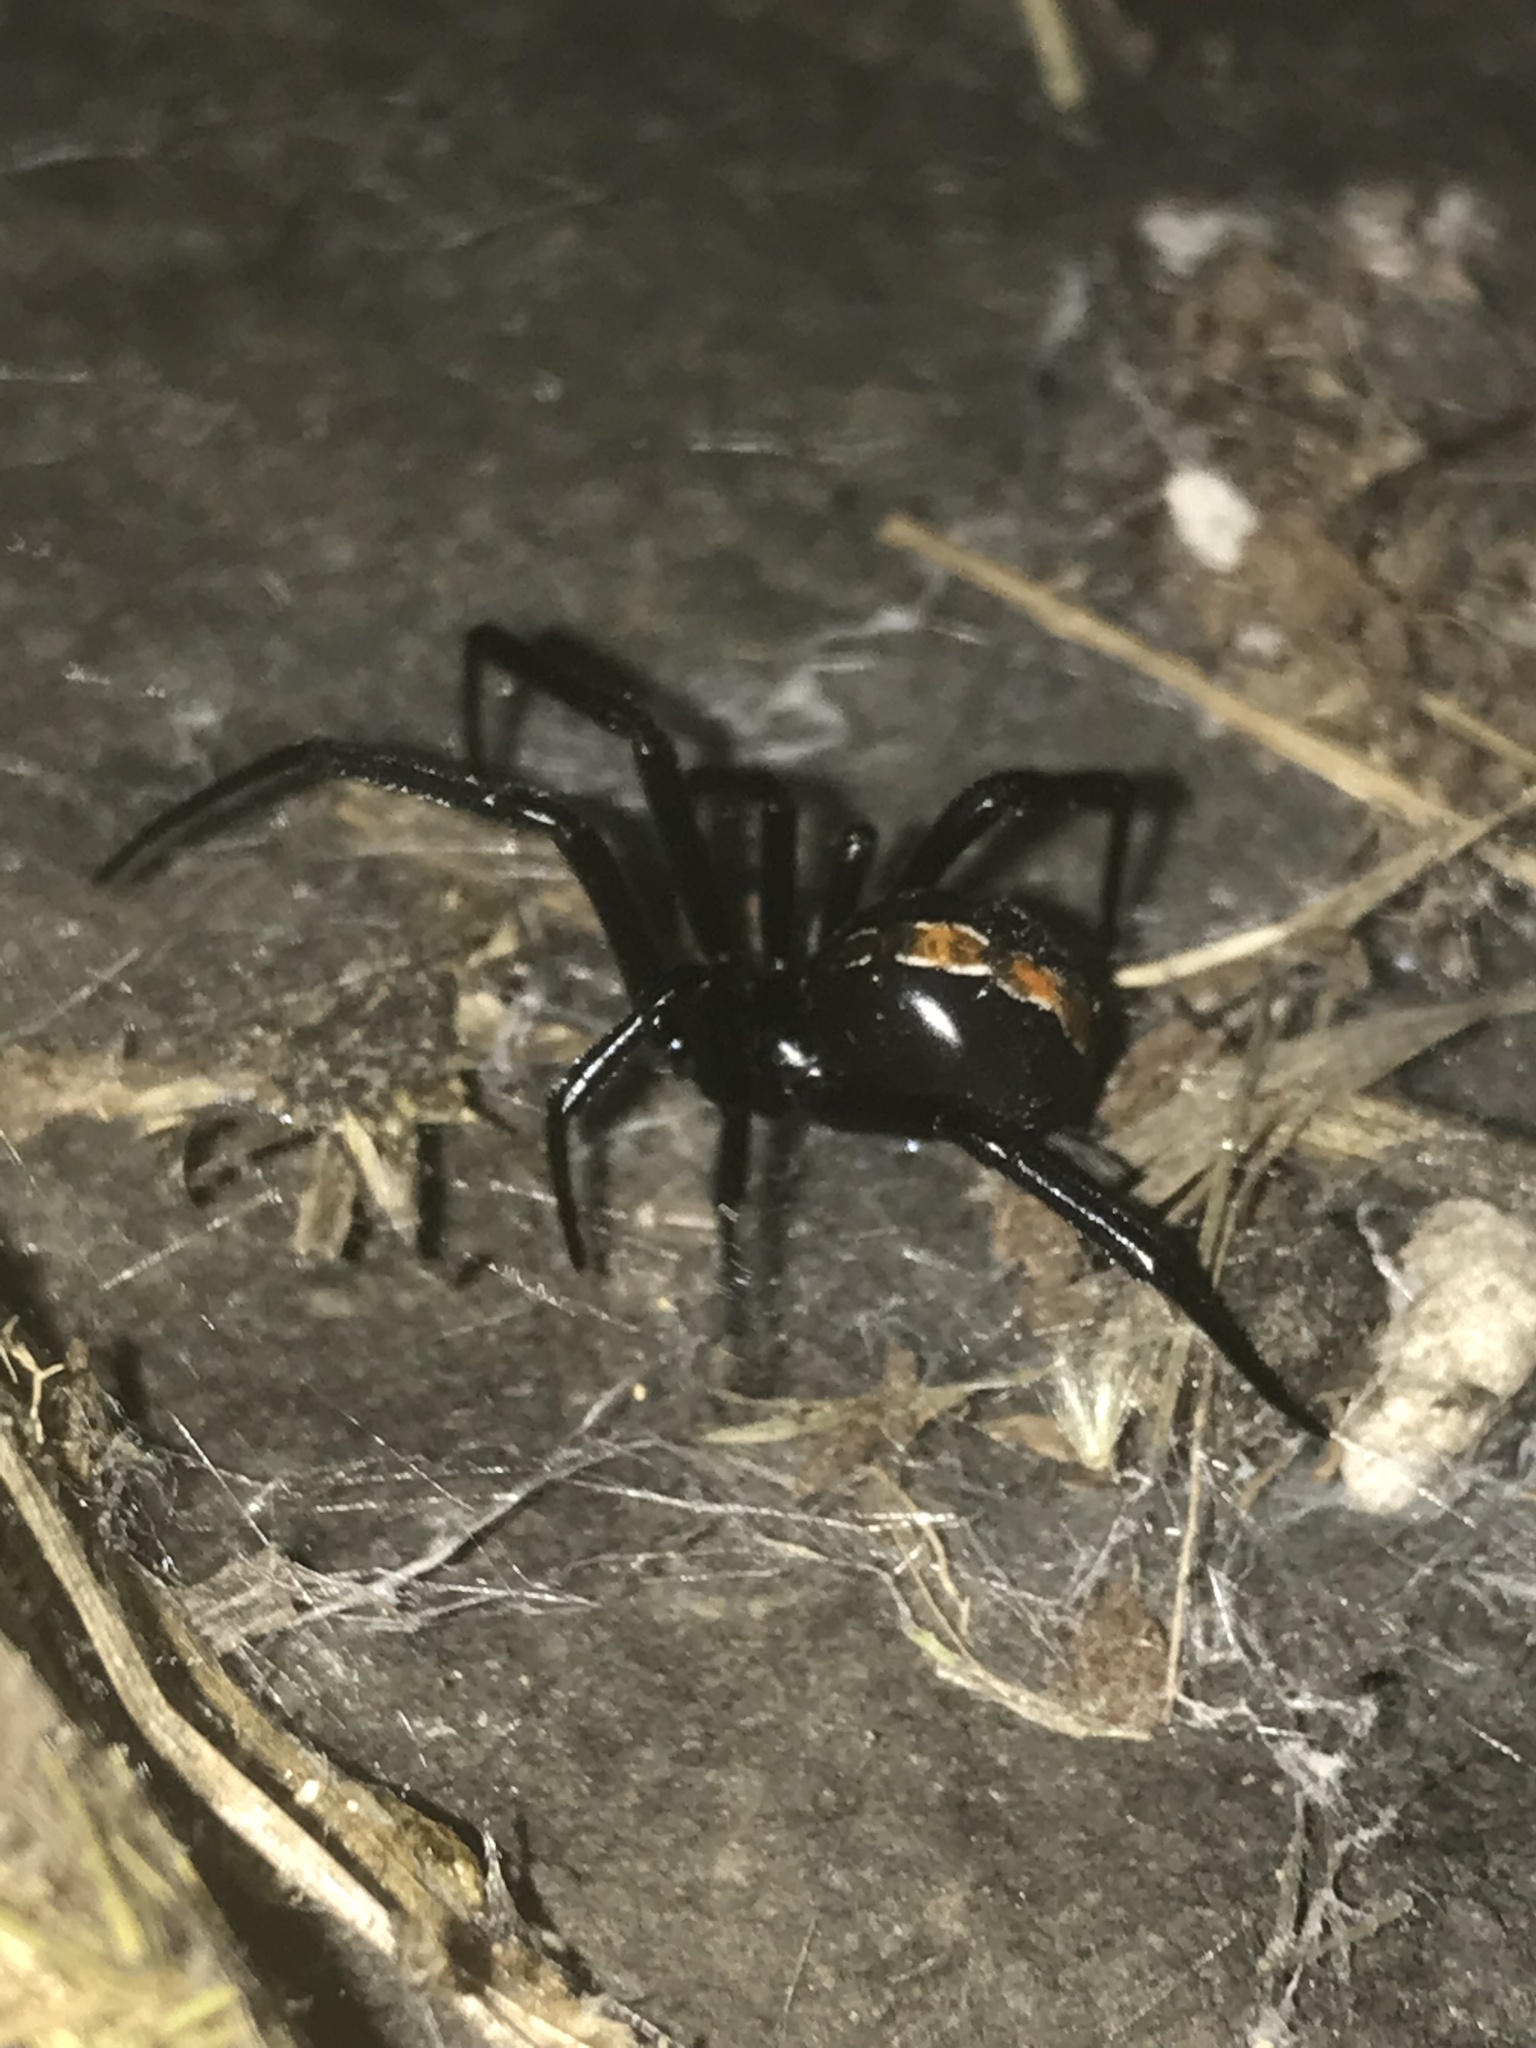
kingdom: Animalia
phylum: Arthropoda
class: Arachnida
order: Araneae
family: Theridiidae
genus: Latrodectus
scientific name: Latrodectus hesperus
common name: Western black widow
